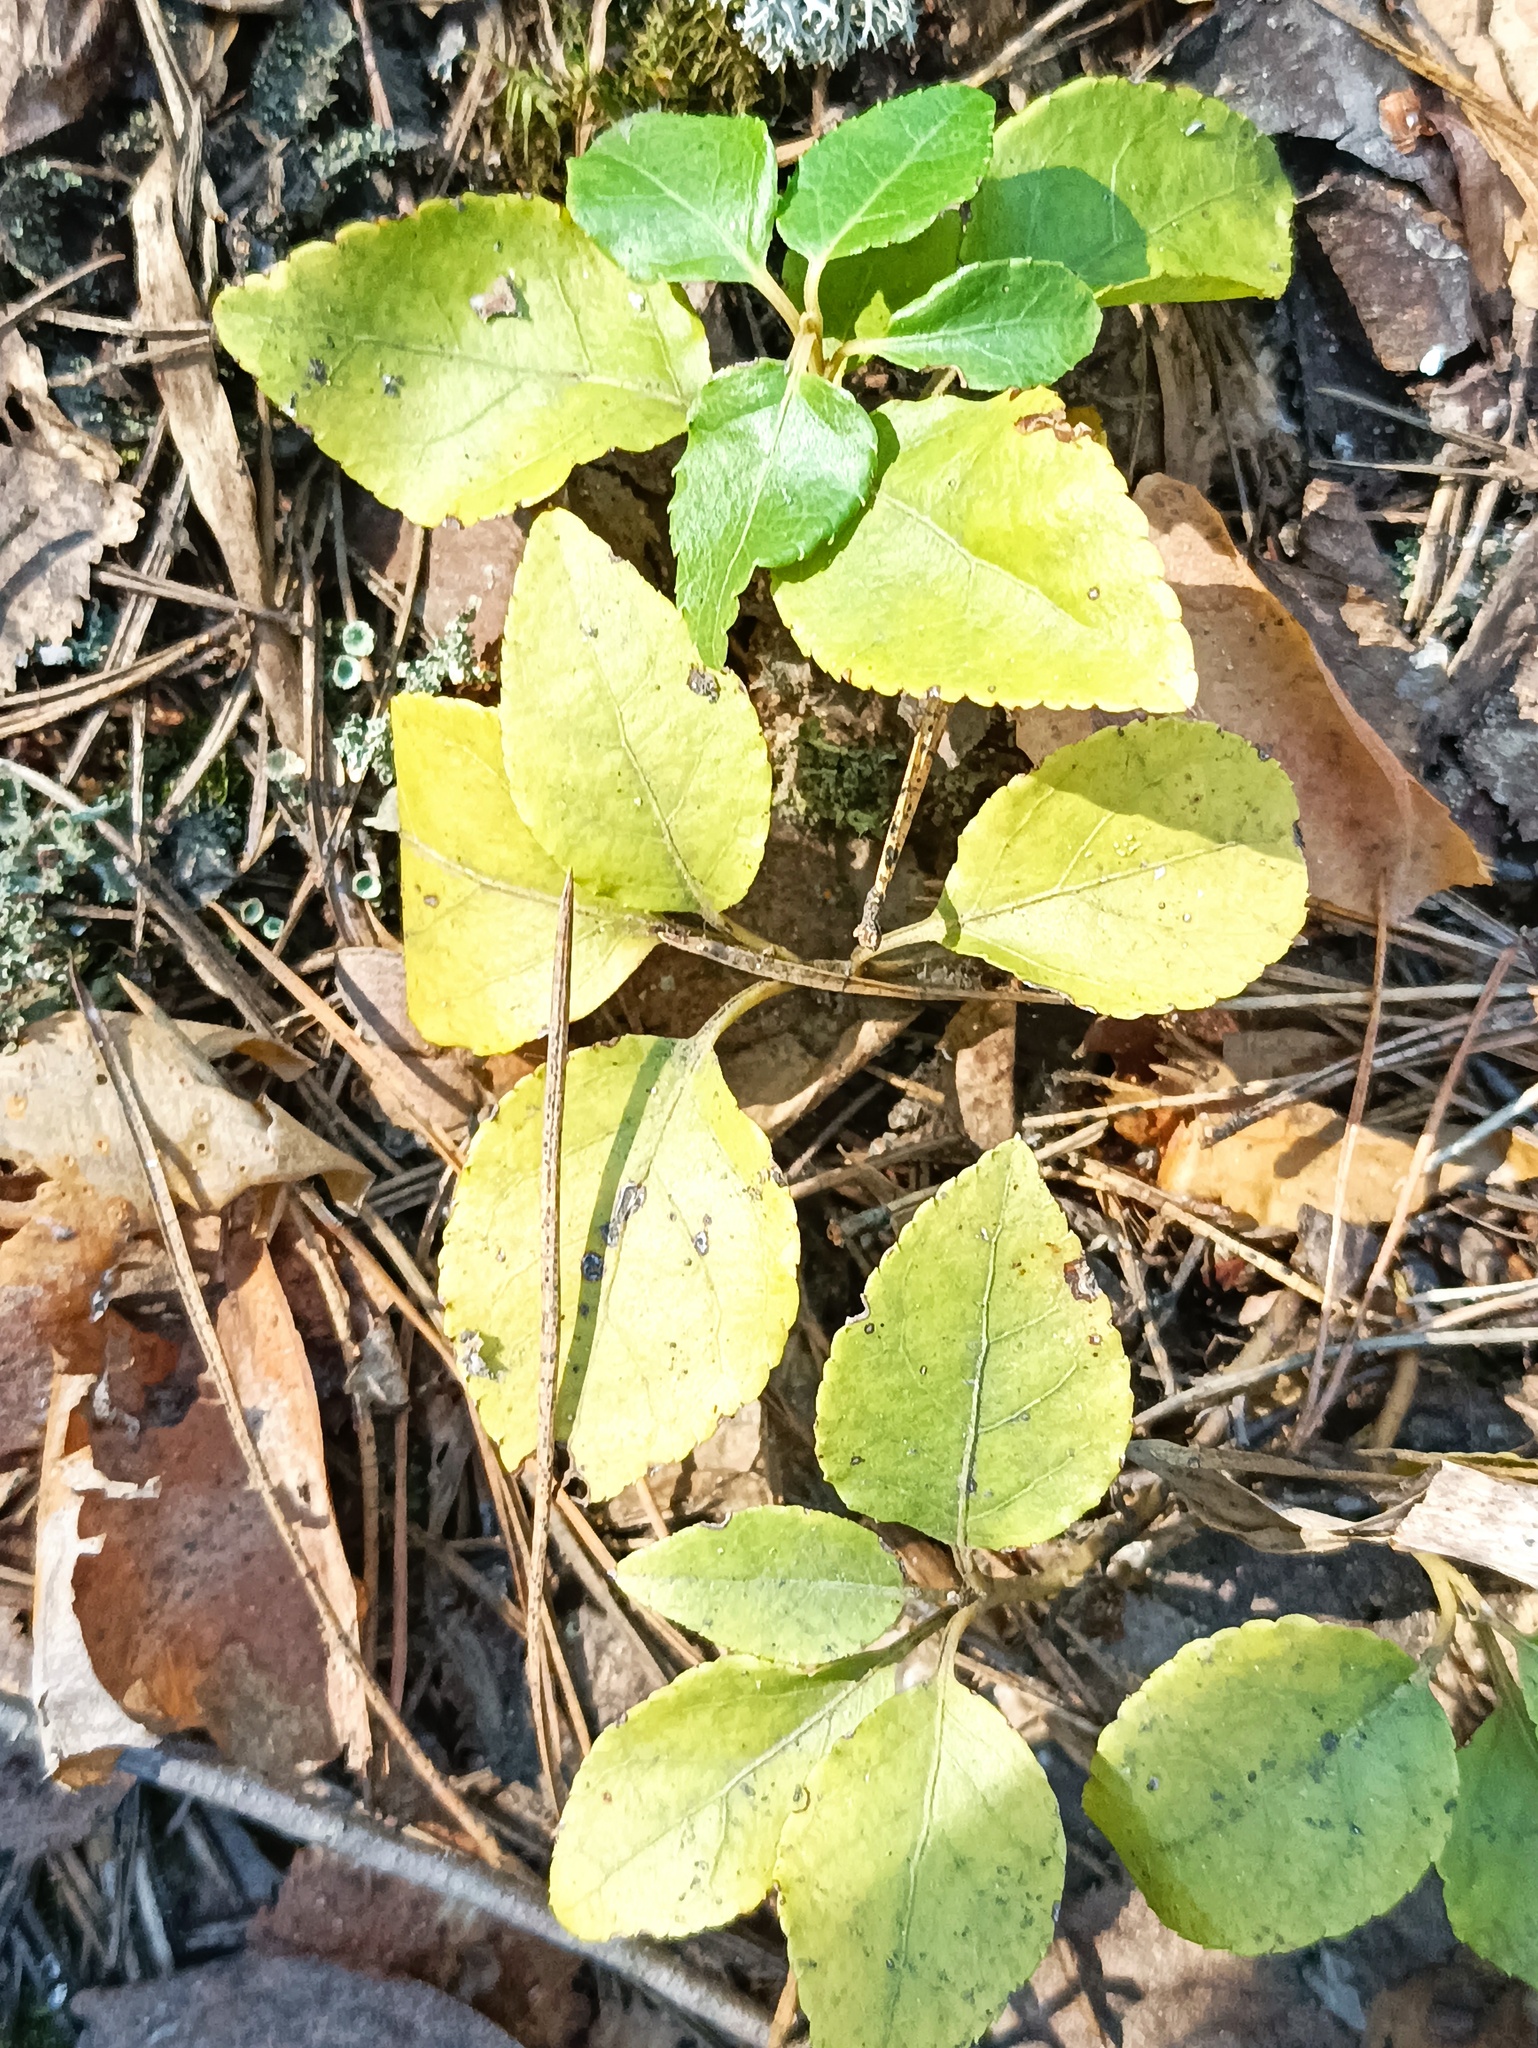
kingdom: Plantae
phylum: Tracheophyta
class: Magnoliopsida
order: Ericales
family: Ericaceae
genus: Orthilia
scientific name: Orthilia secunda
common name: One-sided orthilia
